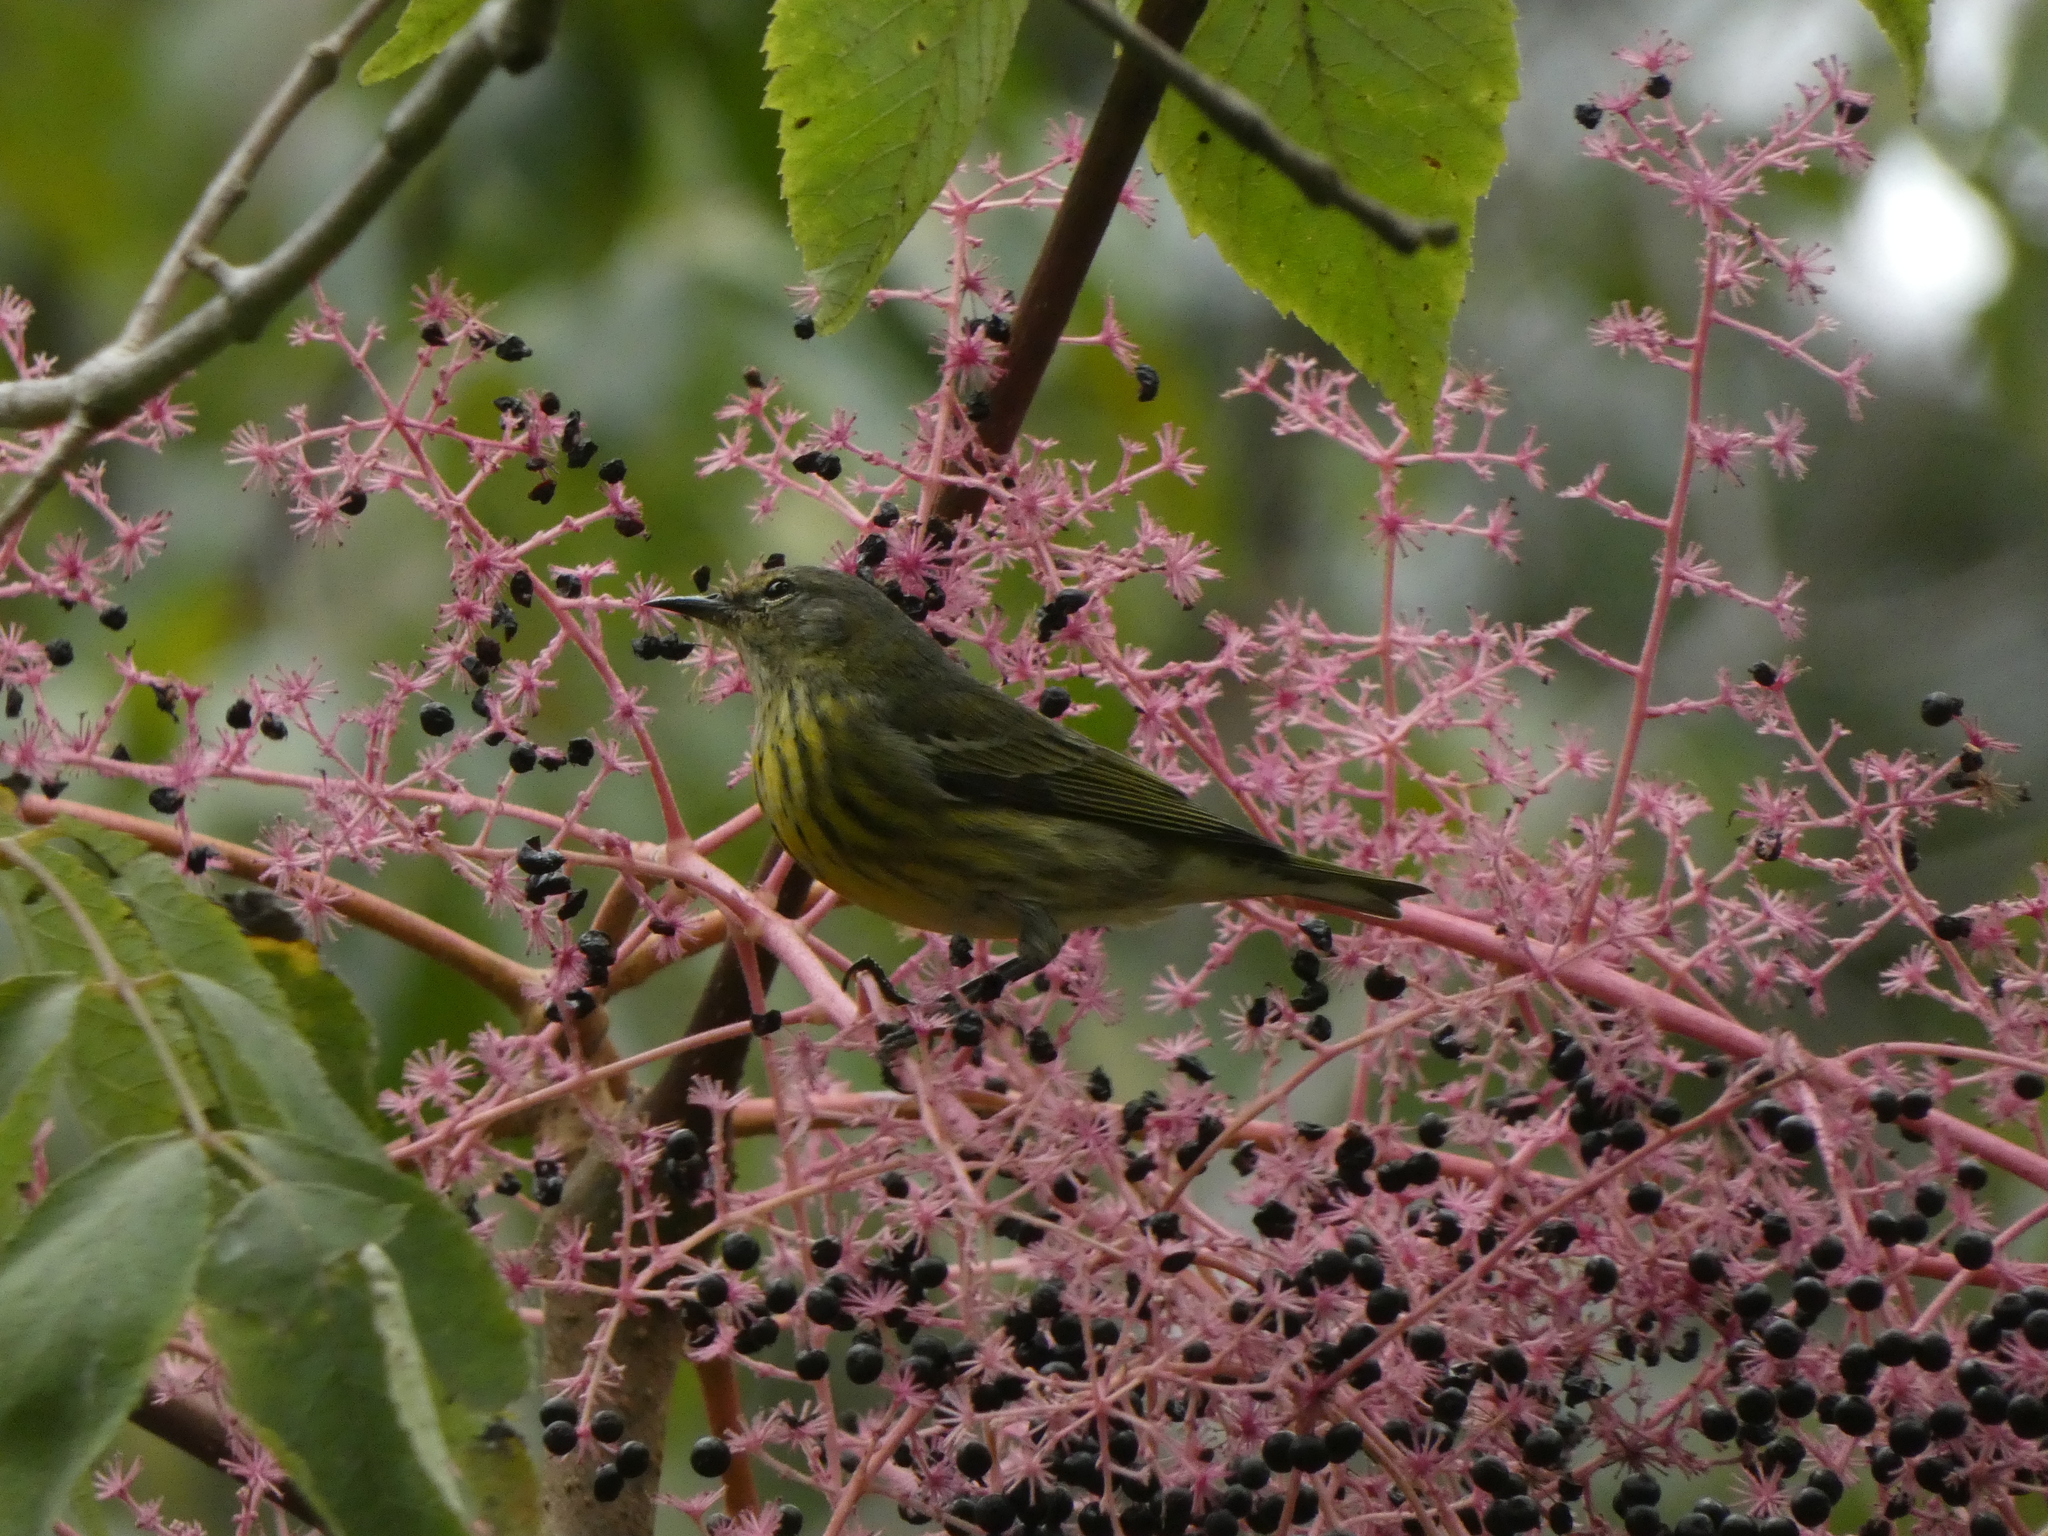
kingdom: Animalia
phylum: Chordata
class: Aves
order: Passeriformes
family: Parulidae
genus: Setophaga
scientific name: Setophaga tigrina
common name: Cape may warbler
